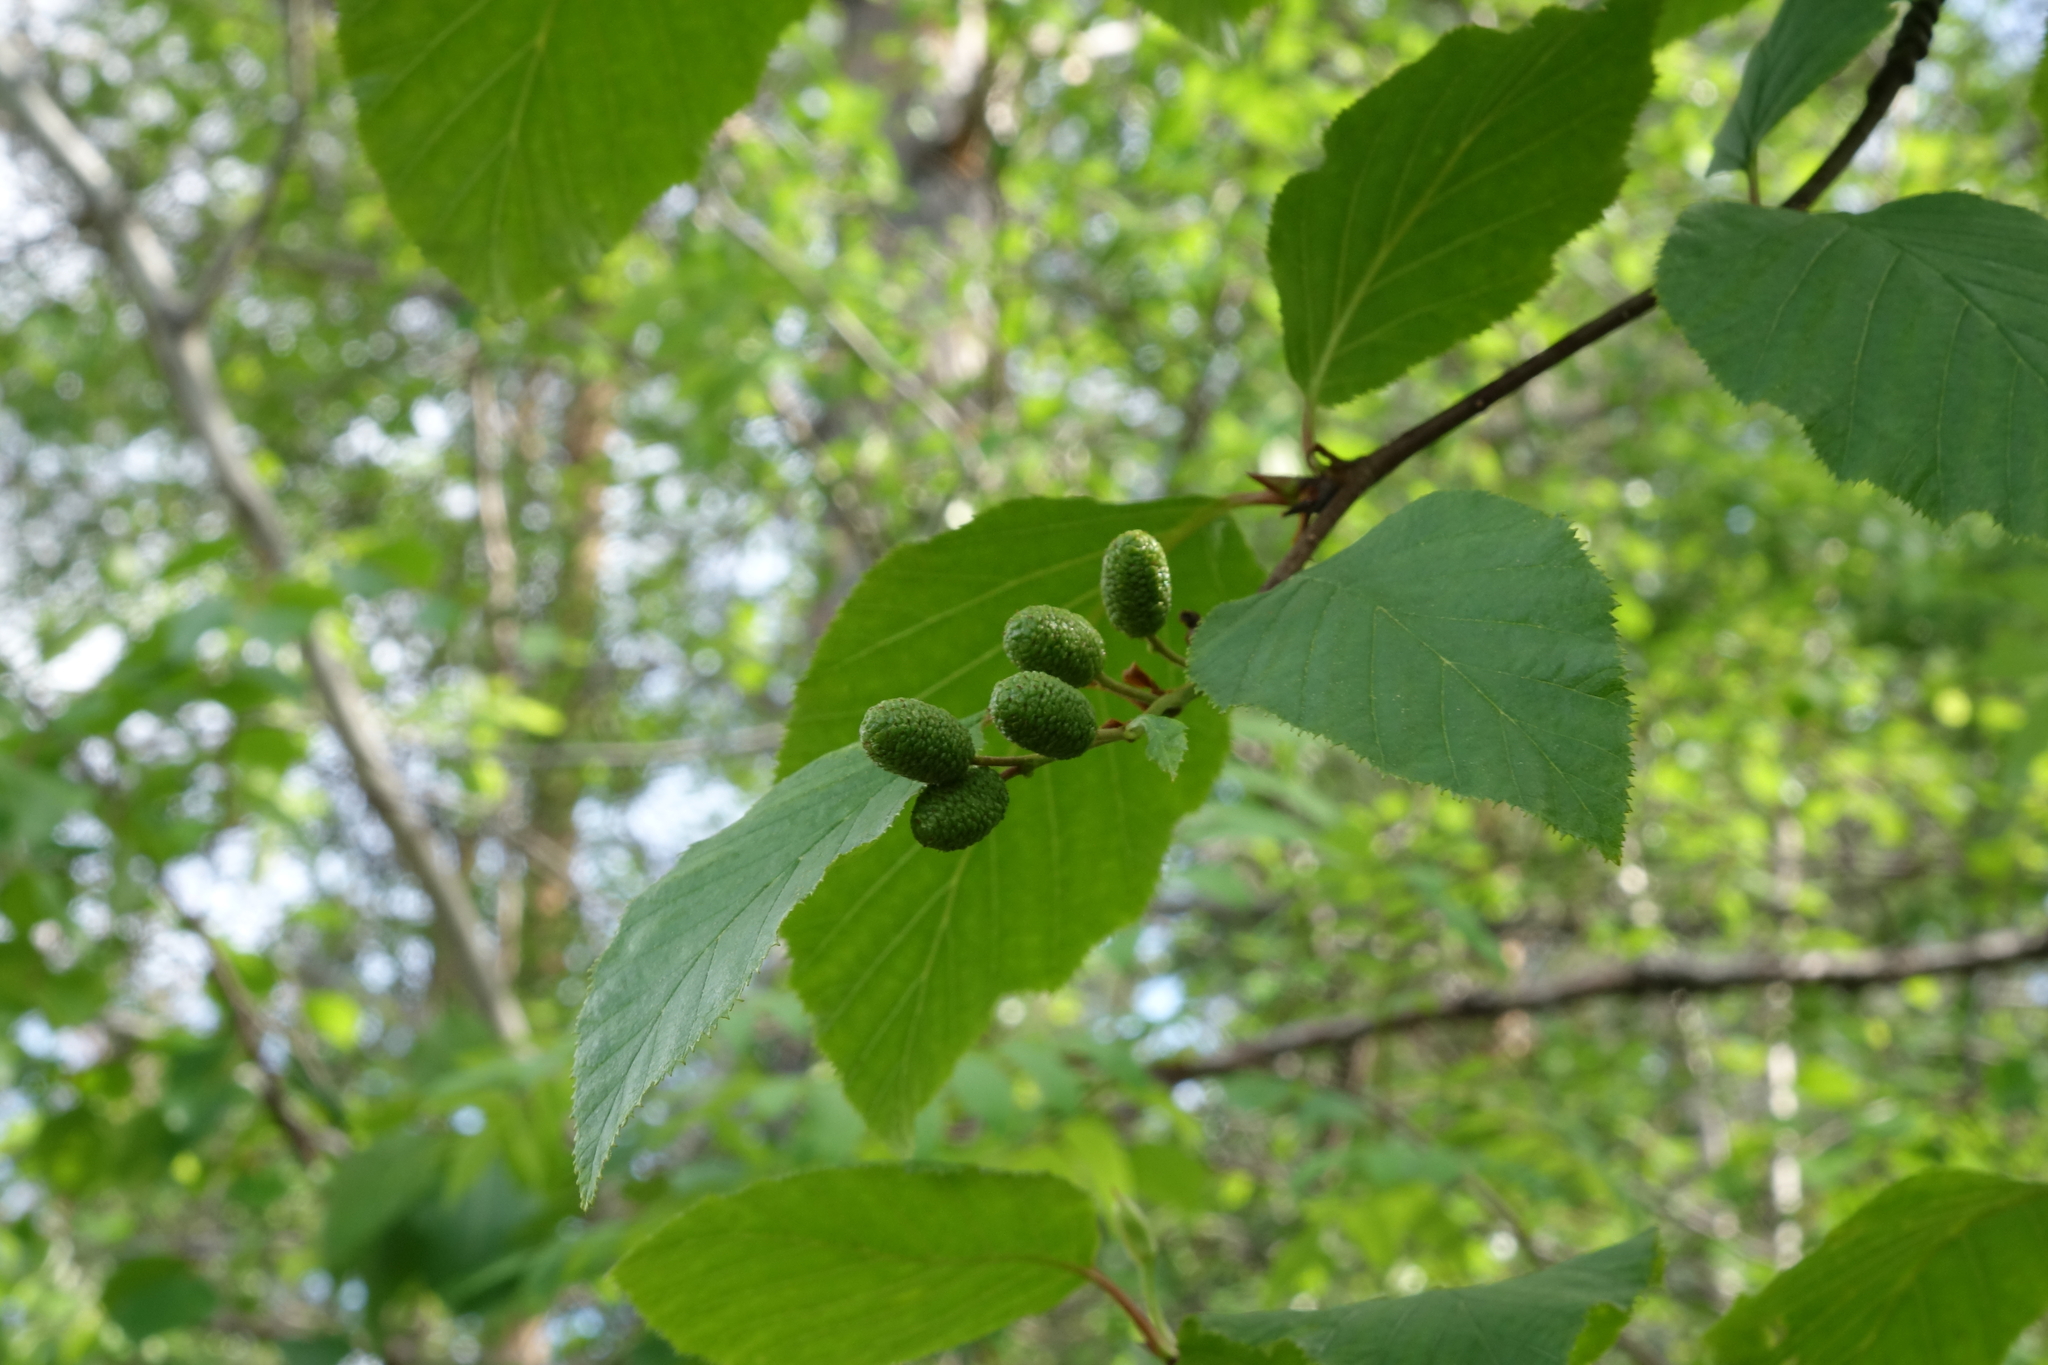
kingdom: Plantae
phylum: Tracheophyta
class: Magnoliopsida
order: Fagales
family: Betulaceae
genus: Alnus
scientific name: Alnus alnobetula
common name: Green alder
